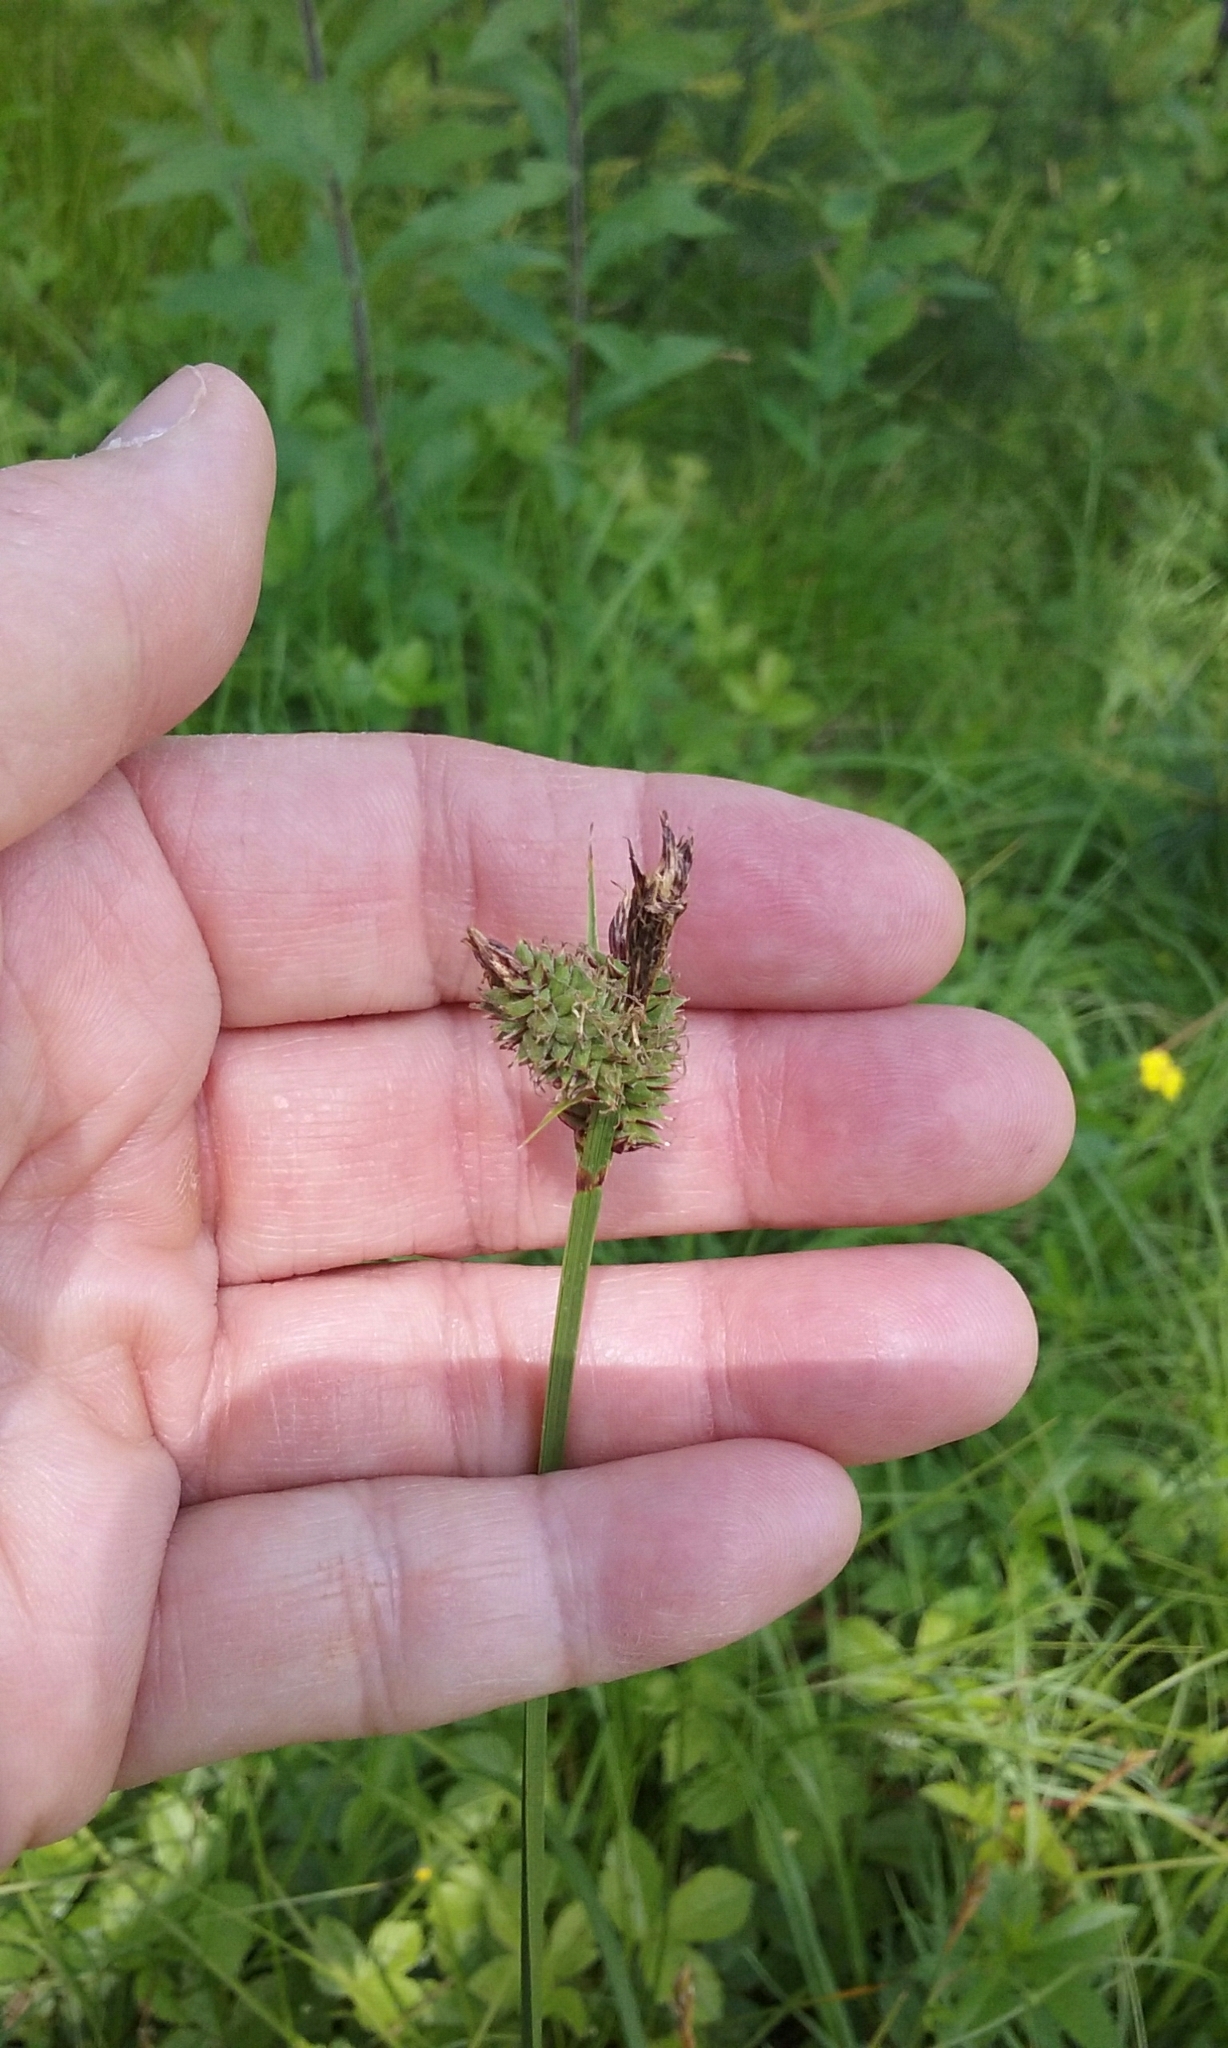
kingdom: Plantae
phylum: Tracheophyta
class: Liliopsida
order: Poales
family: Cyperaceae
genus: Carex
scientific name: Carex vestita
